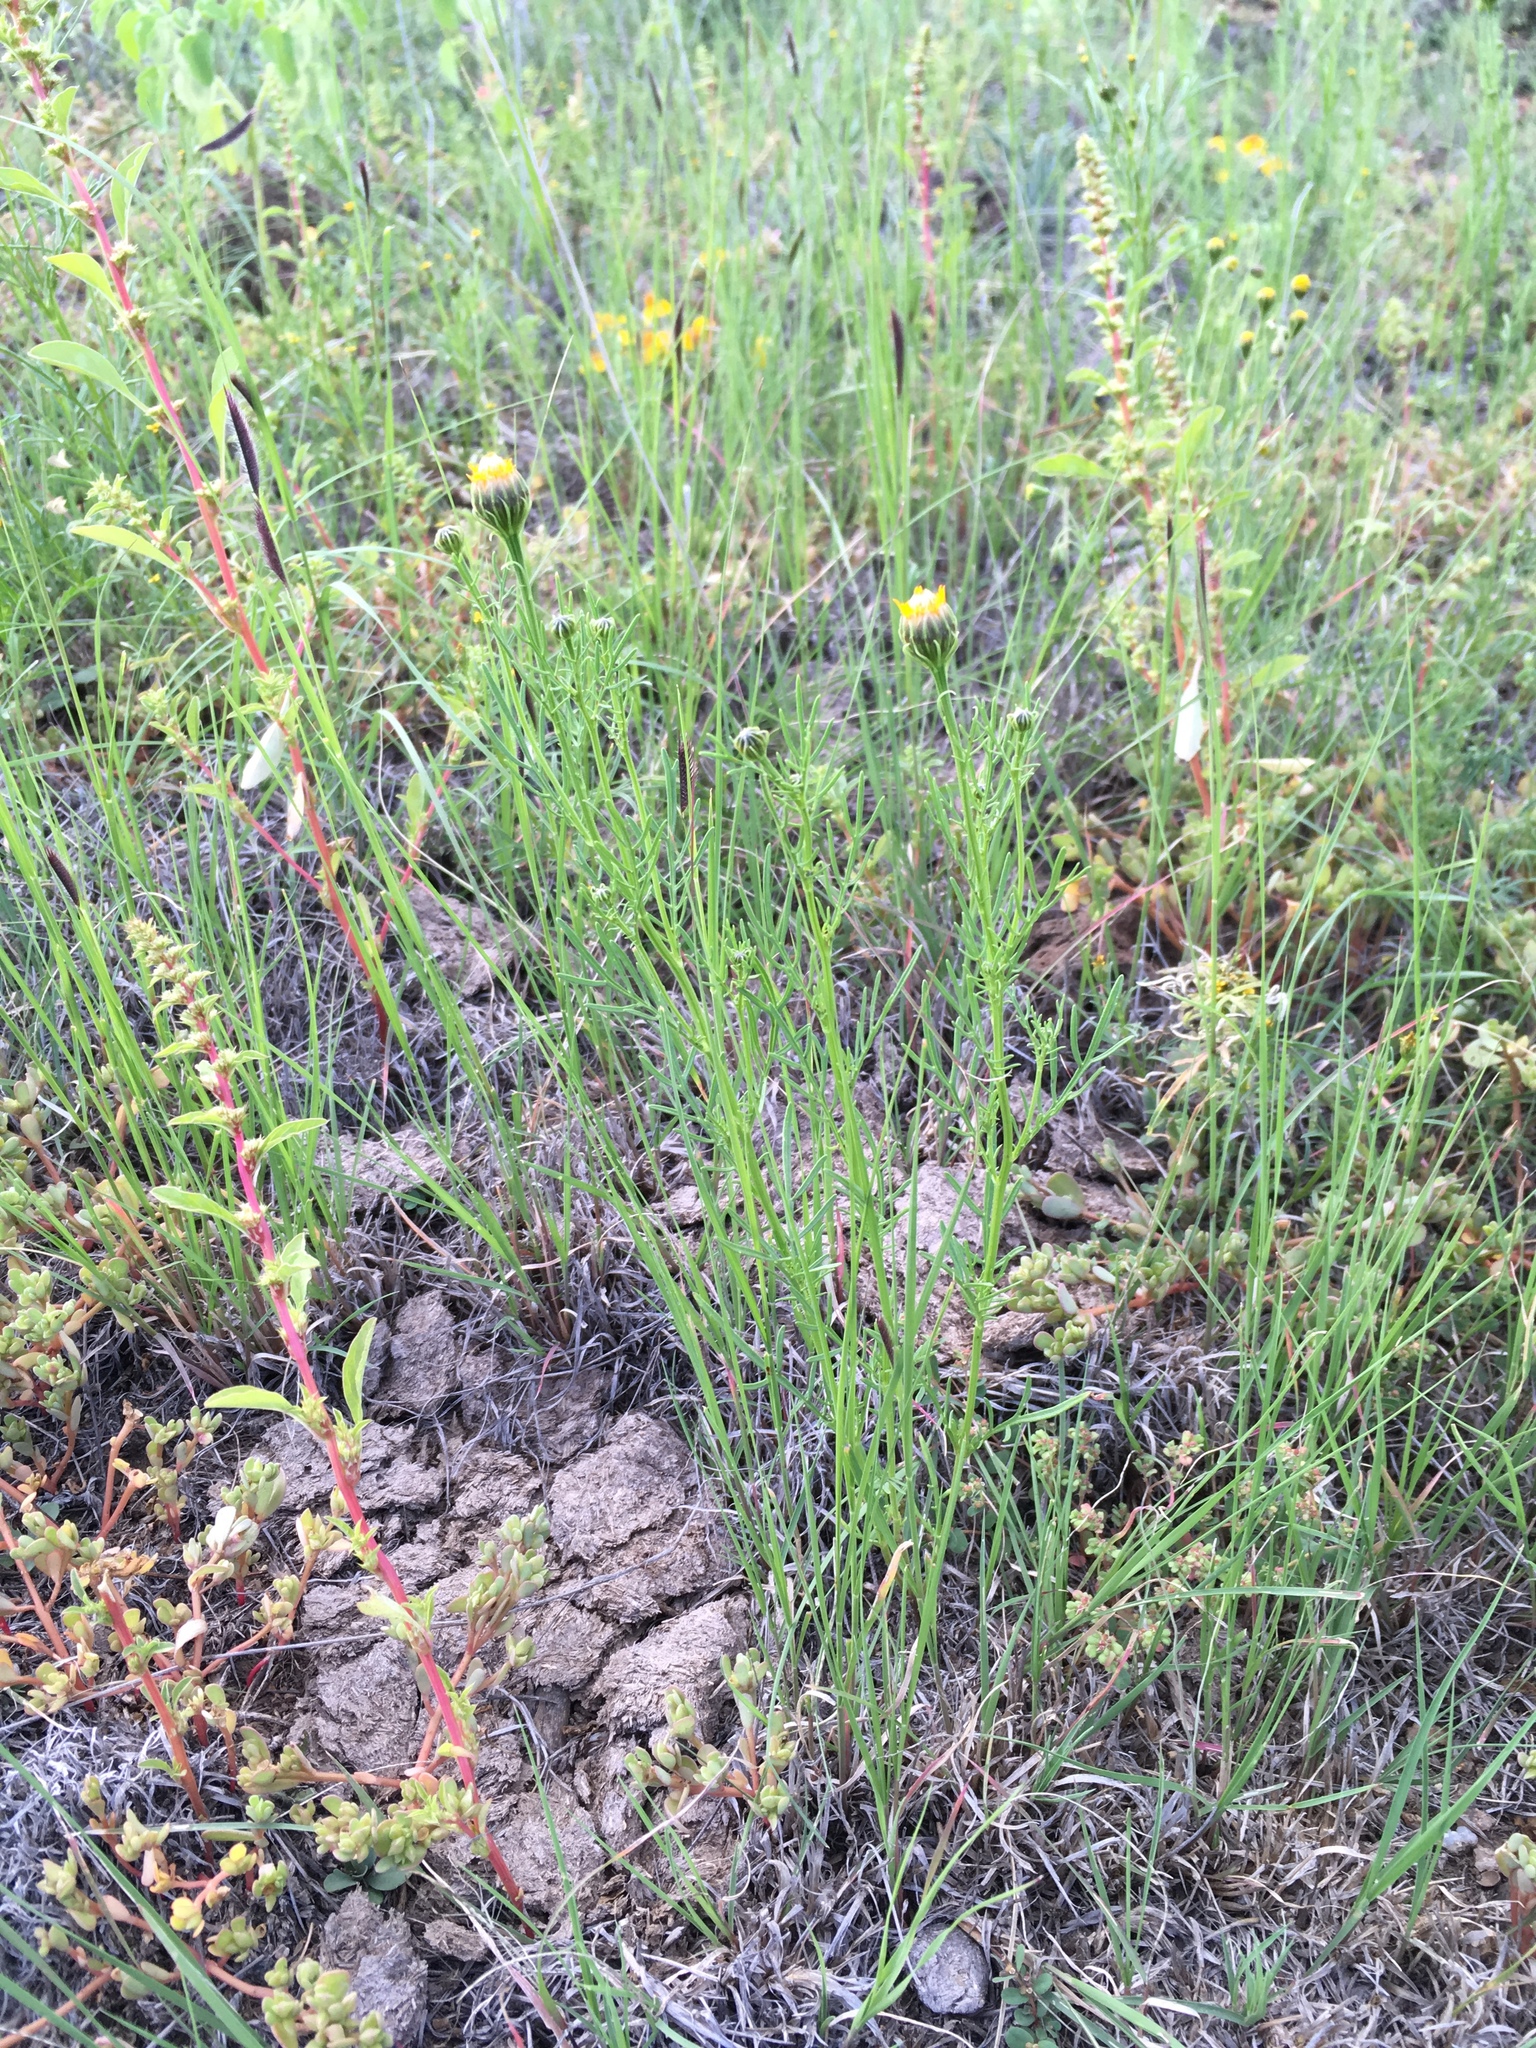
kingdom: Plantae
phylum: Tracheophyta
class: Magnoliopsida
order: Asterales
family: Asteraceae
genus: Adenophyllum
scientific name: Adenophyllum wrightii
